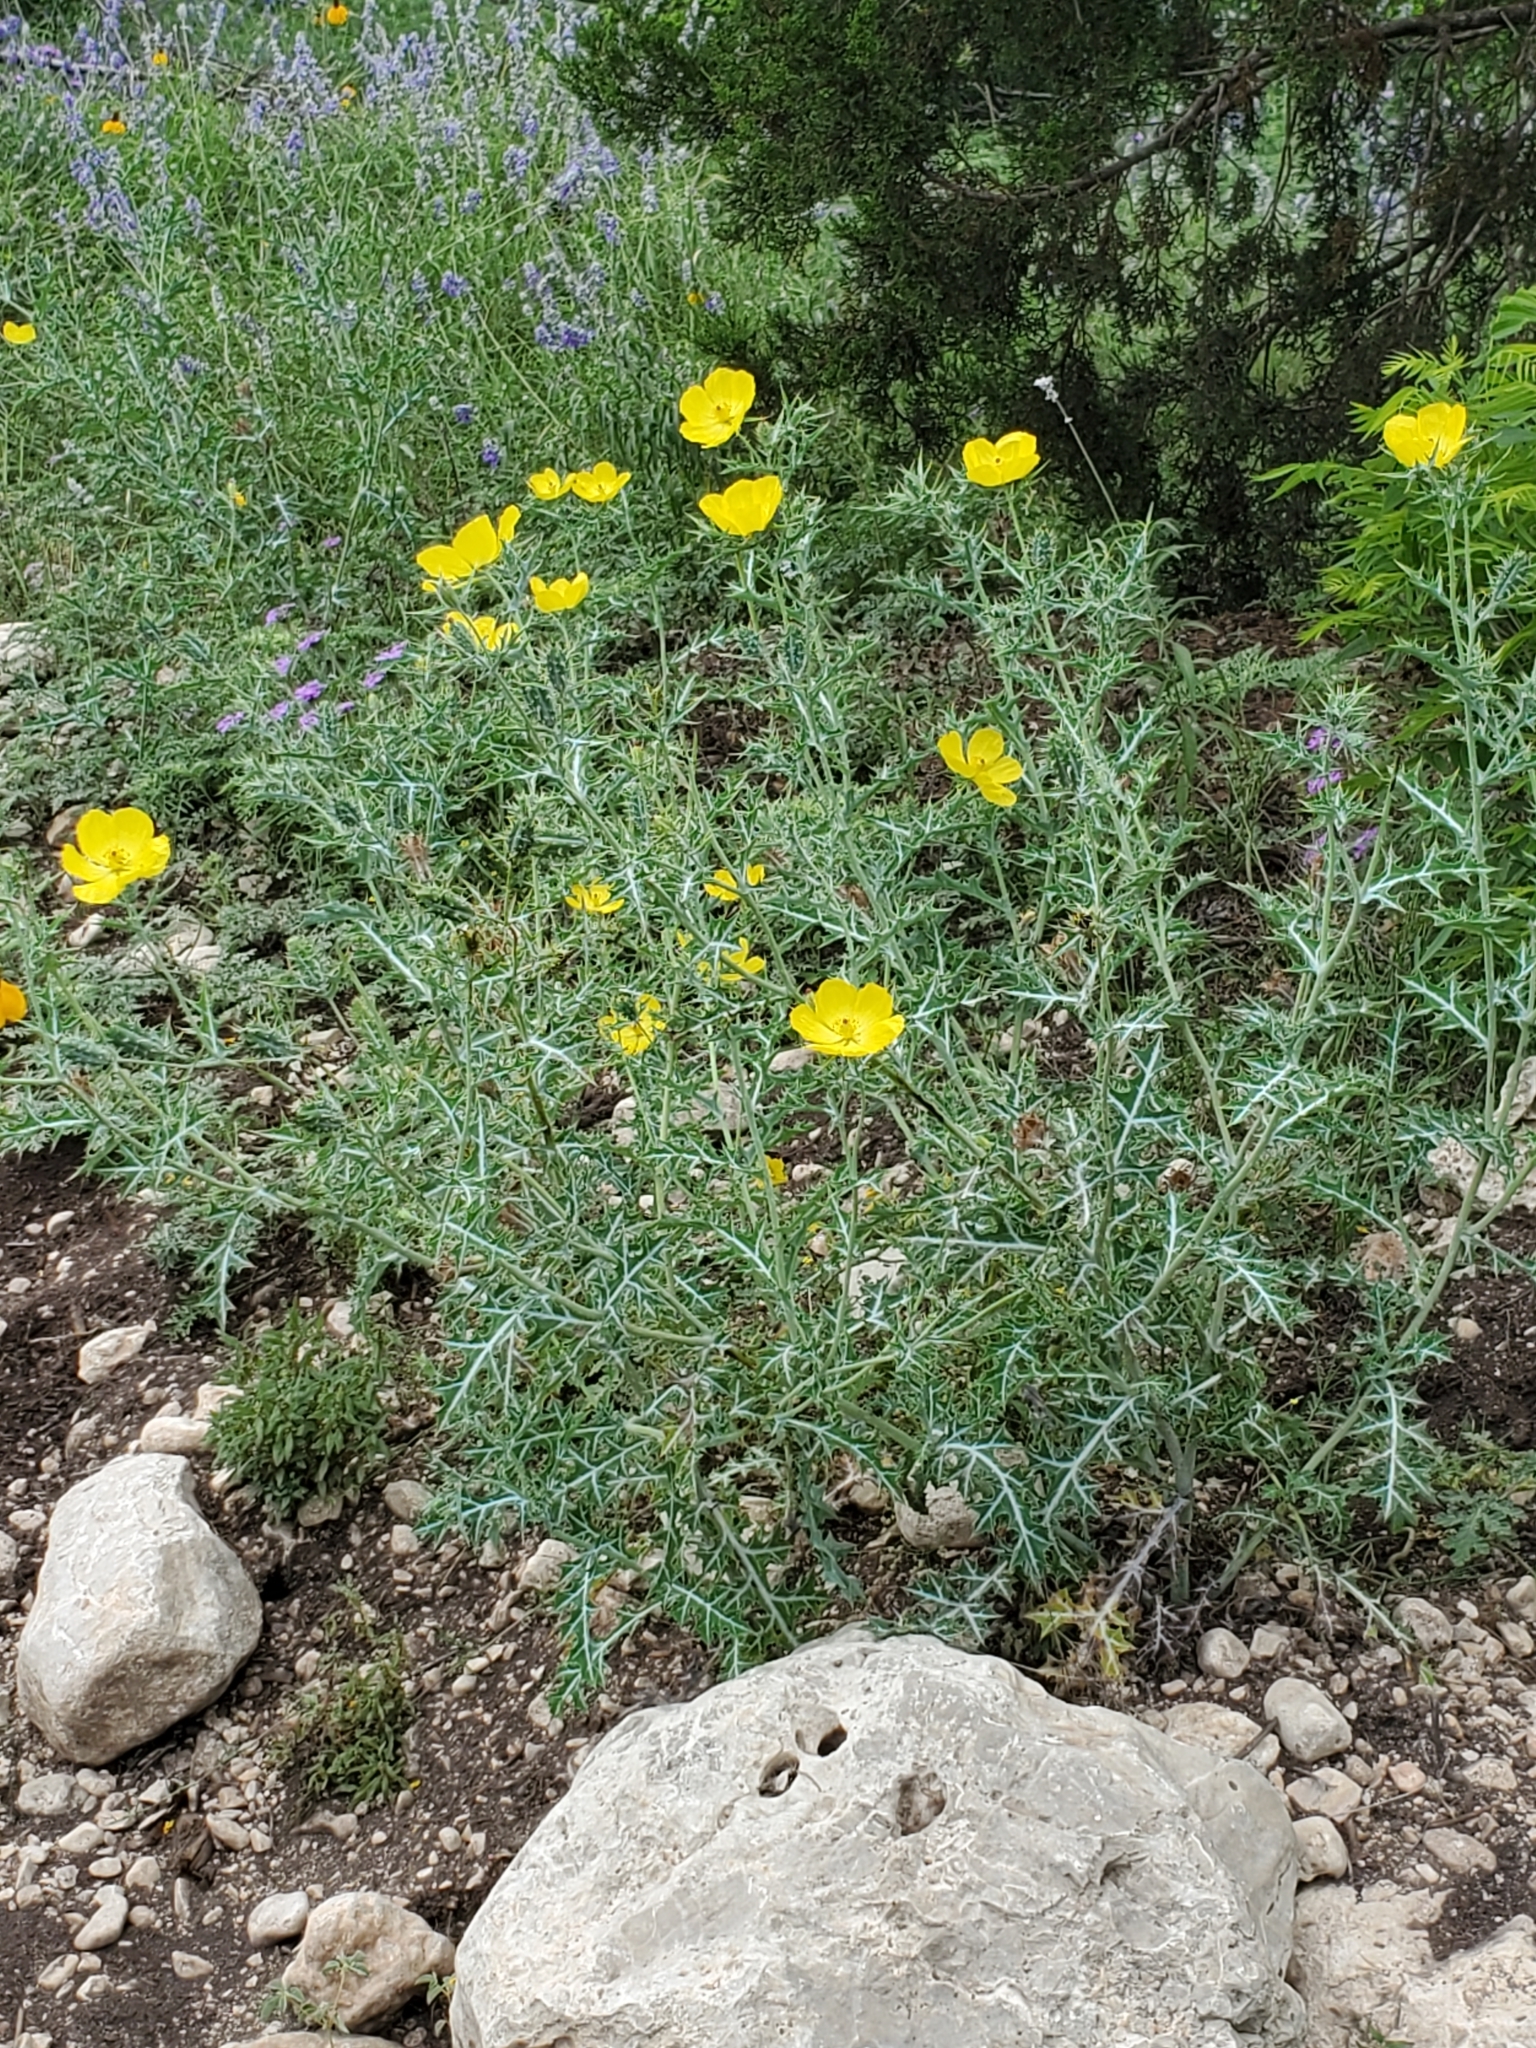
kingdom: Plantae
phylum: Tracheophyta
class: Magnoliopsida
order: Ranunculales
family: Papaveraceae
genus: Argemone
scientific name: Argemone mexicana
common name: Mexican poppy
